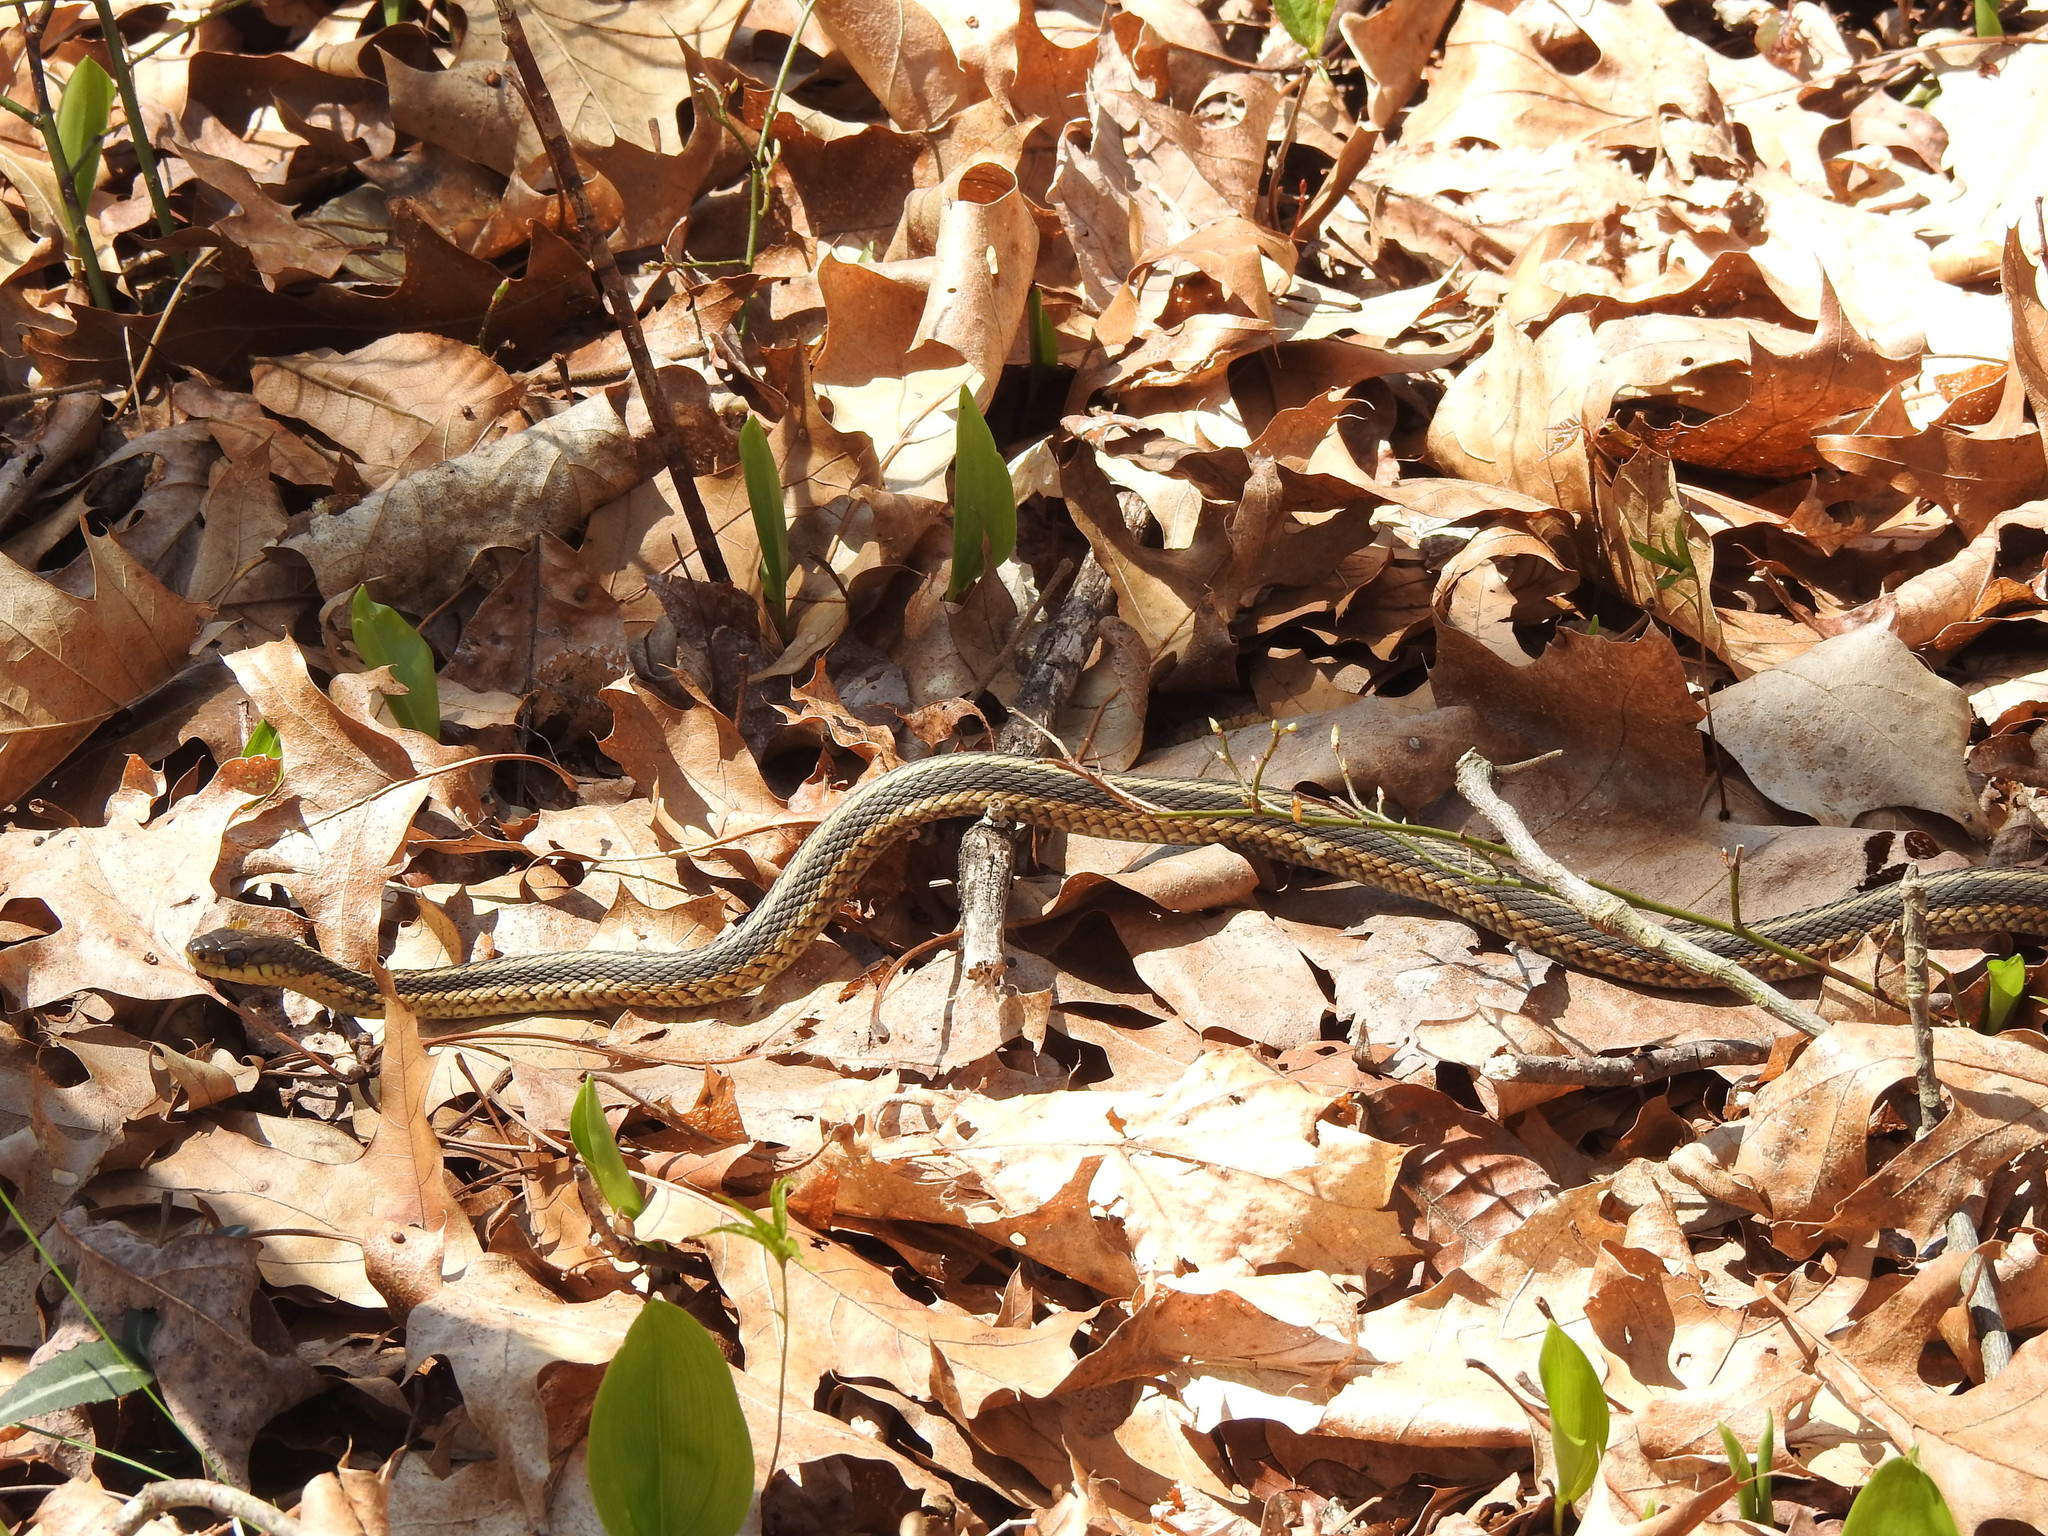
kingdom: Animalia
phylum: Chordata
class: Squamata
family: Colubridae
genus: Thamnophis
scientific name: Thamnophis sirtalis
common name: Common garter snake
